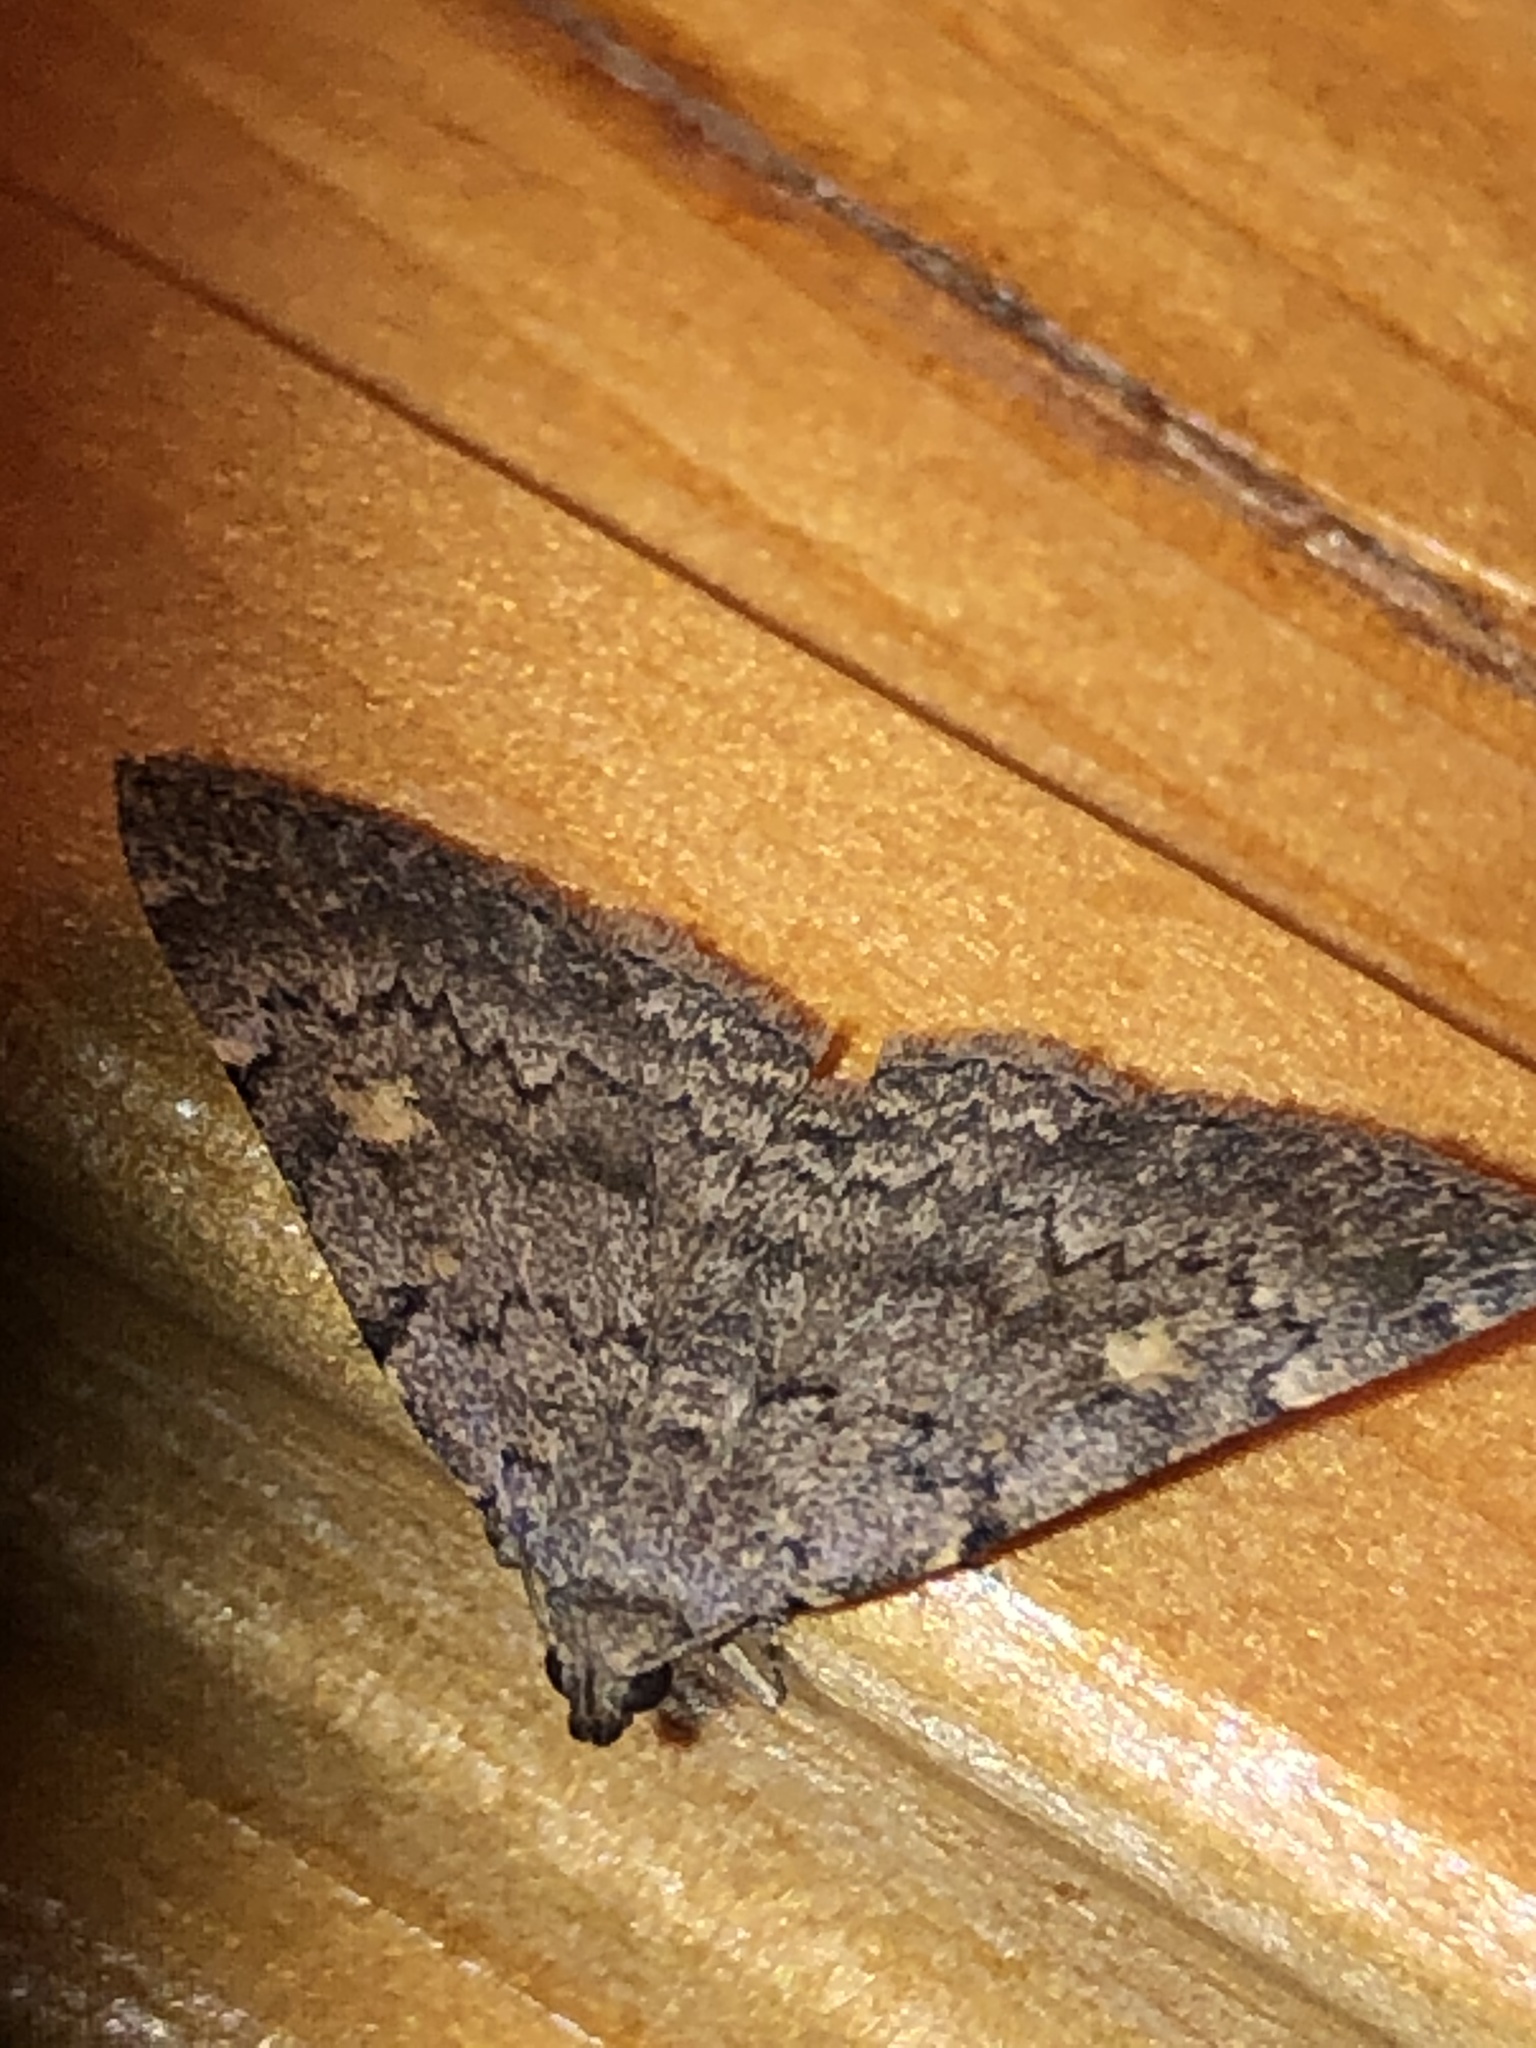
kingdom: Animalia
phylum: Arthropoda
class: Insecta
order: Lepidoptera
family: Erebidae
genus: Idia
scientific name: Idia aemula
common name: Common idia moth
